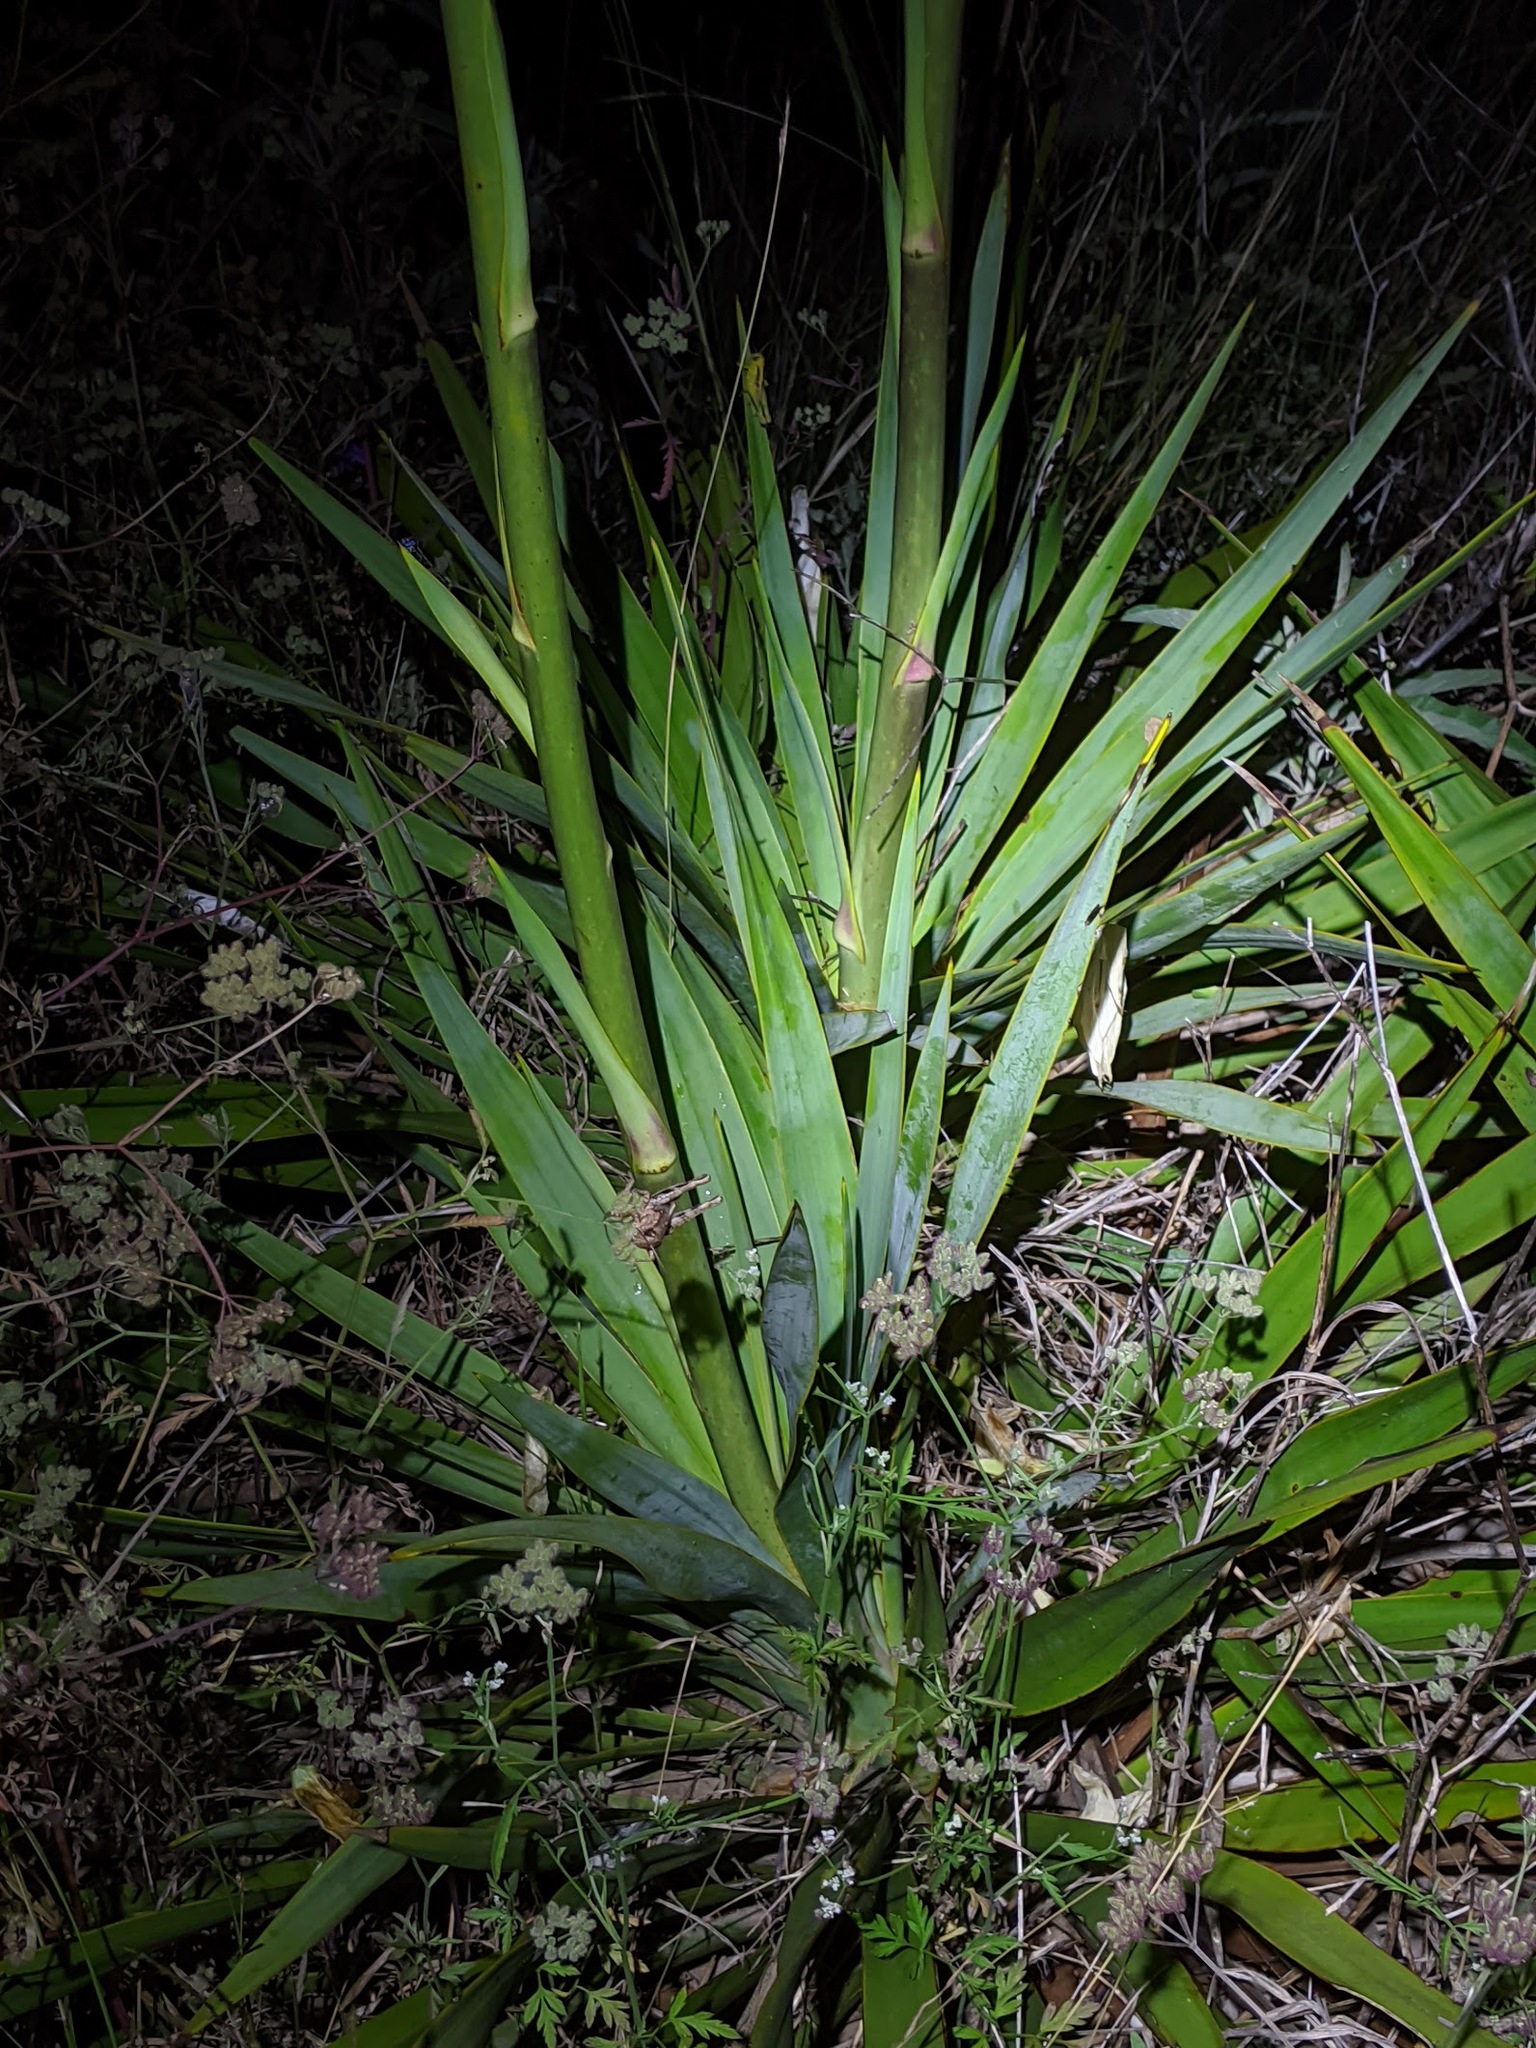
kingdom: Plantae
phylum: Tracheophyta
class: Liliopsida
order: Asparagales
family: Asparagaceae
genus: Yucca
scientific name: Yucca rupicola
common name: Twisted-leaf spanish-dagger
